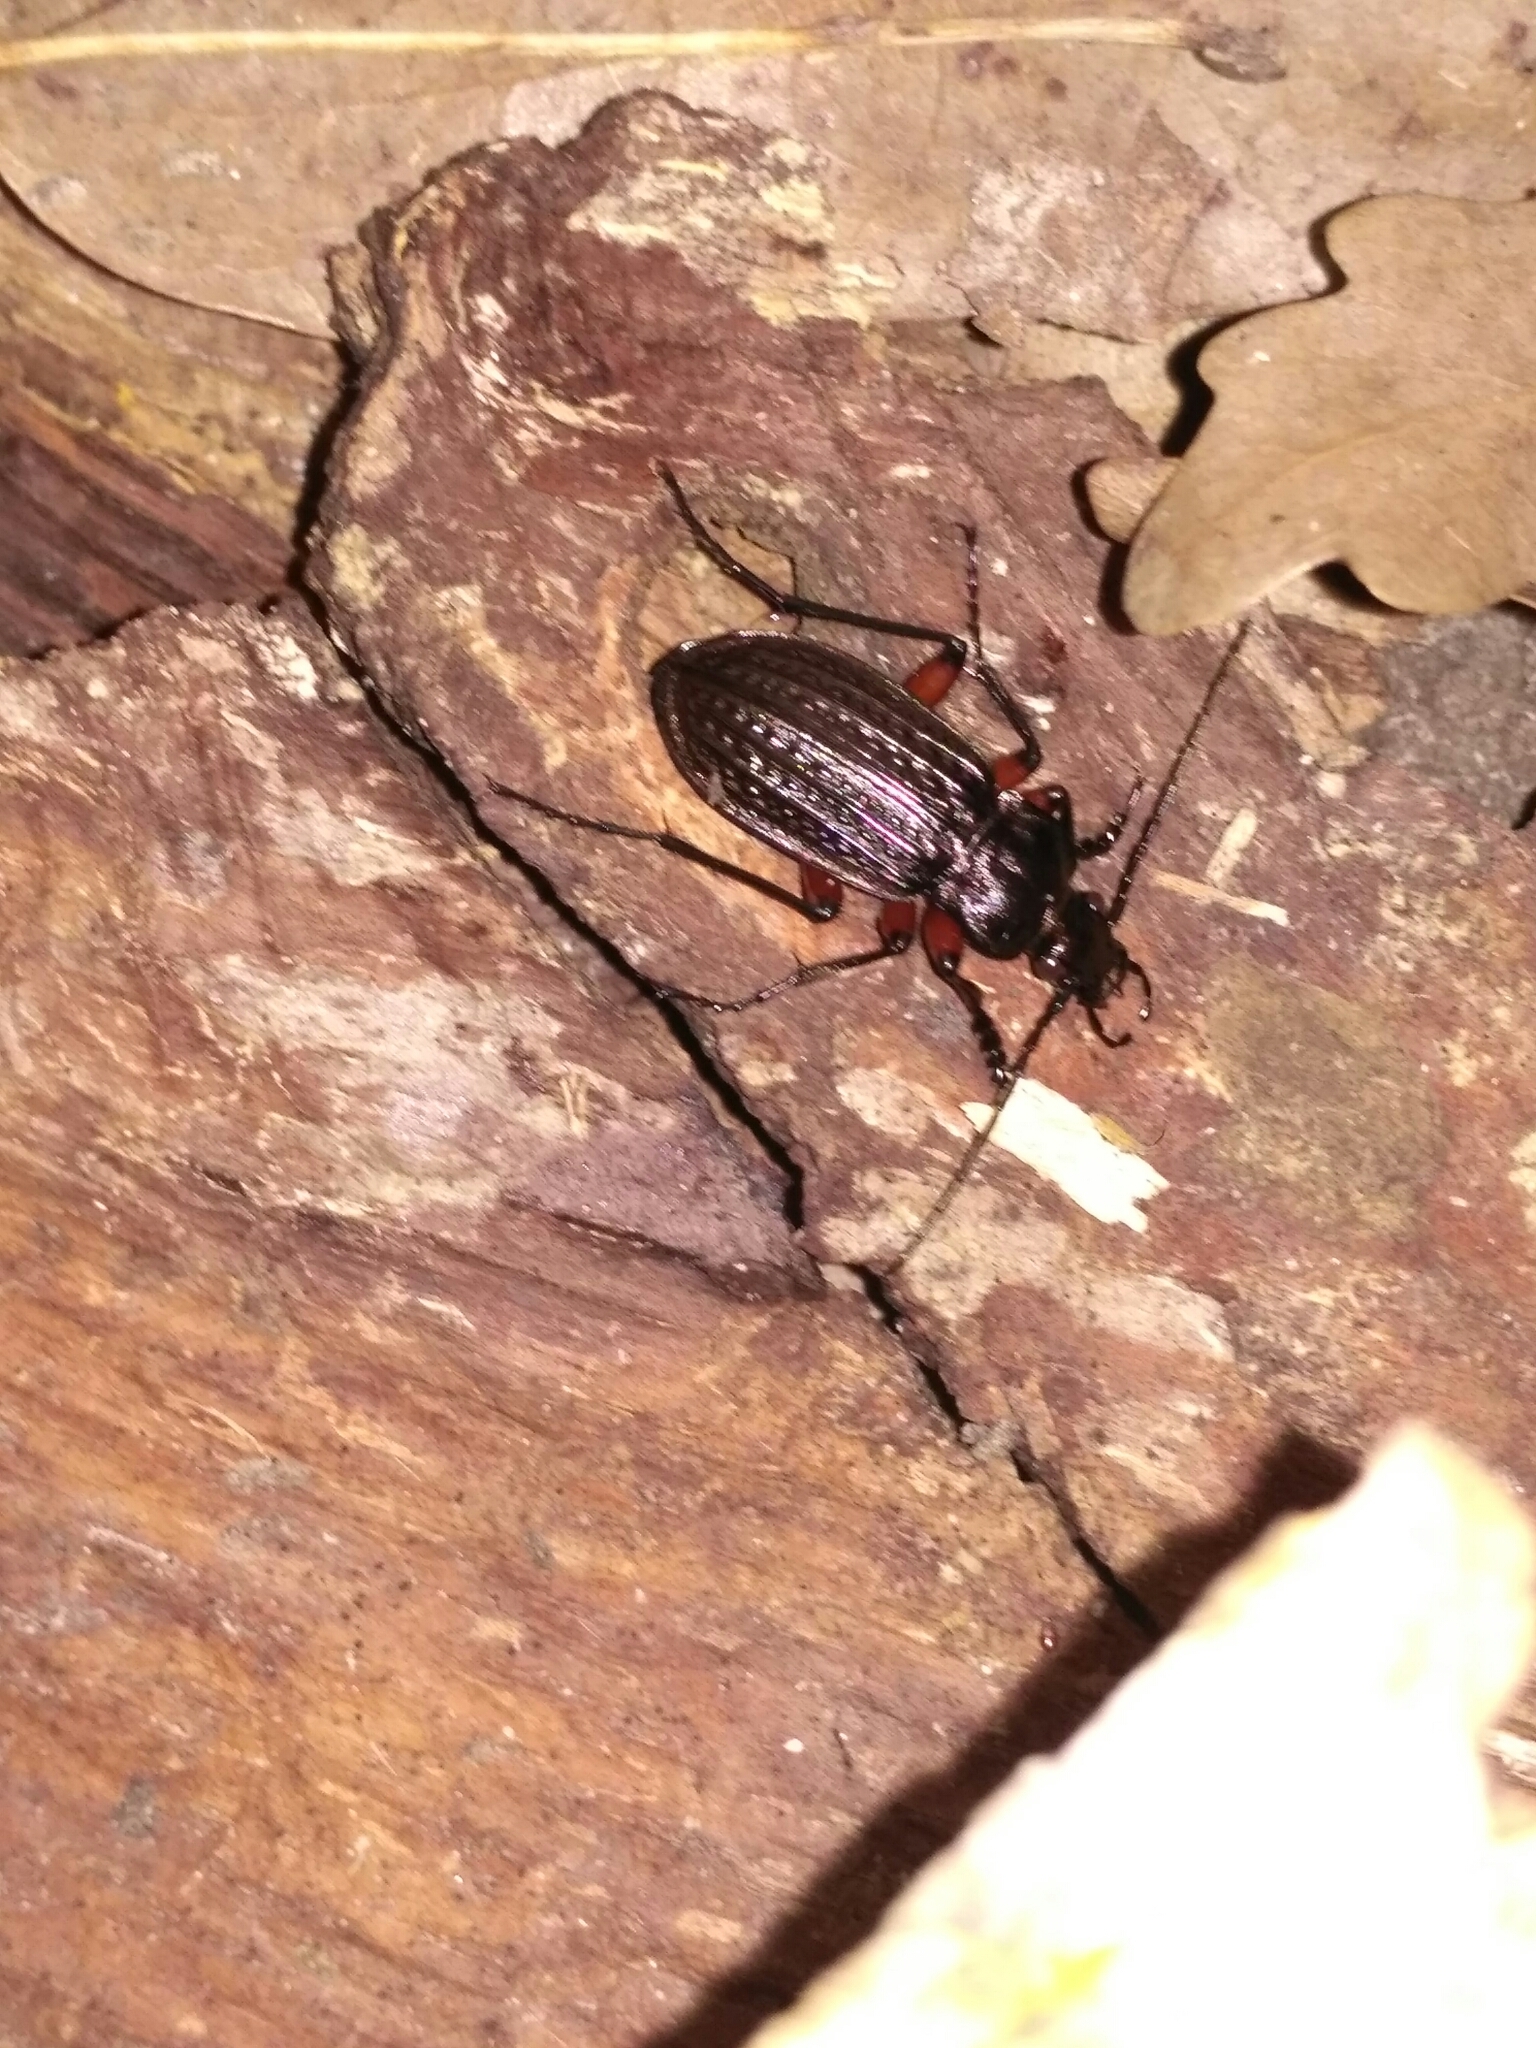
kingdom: Animalia
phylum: Arthropoda
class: Insecta
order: Coleoptera
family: Carabidae
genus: Carabus
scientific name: Carabus granulatus
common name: Granulate ground beetle
